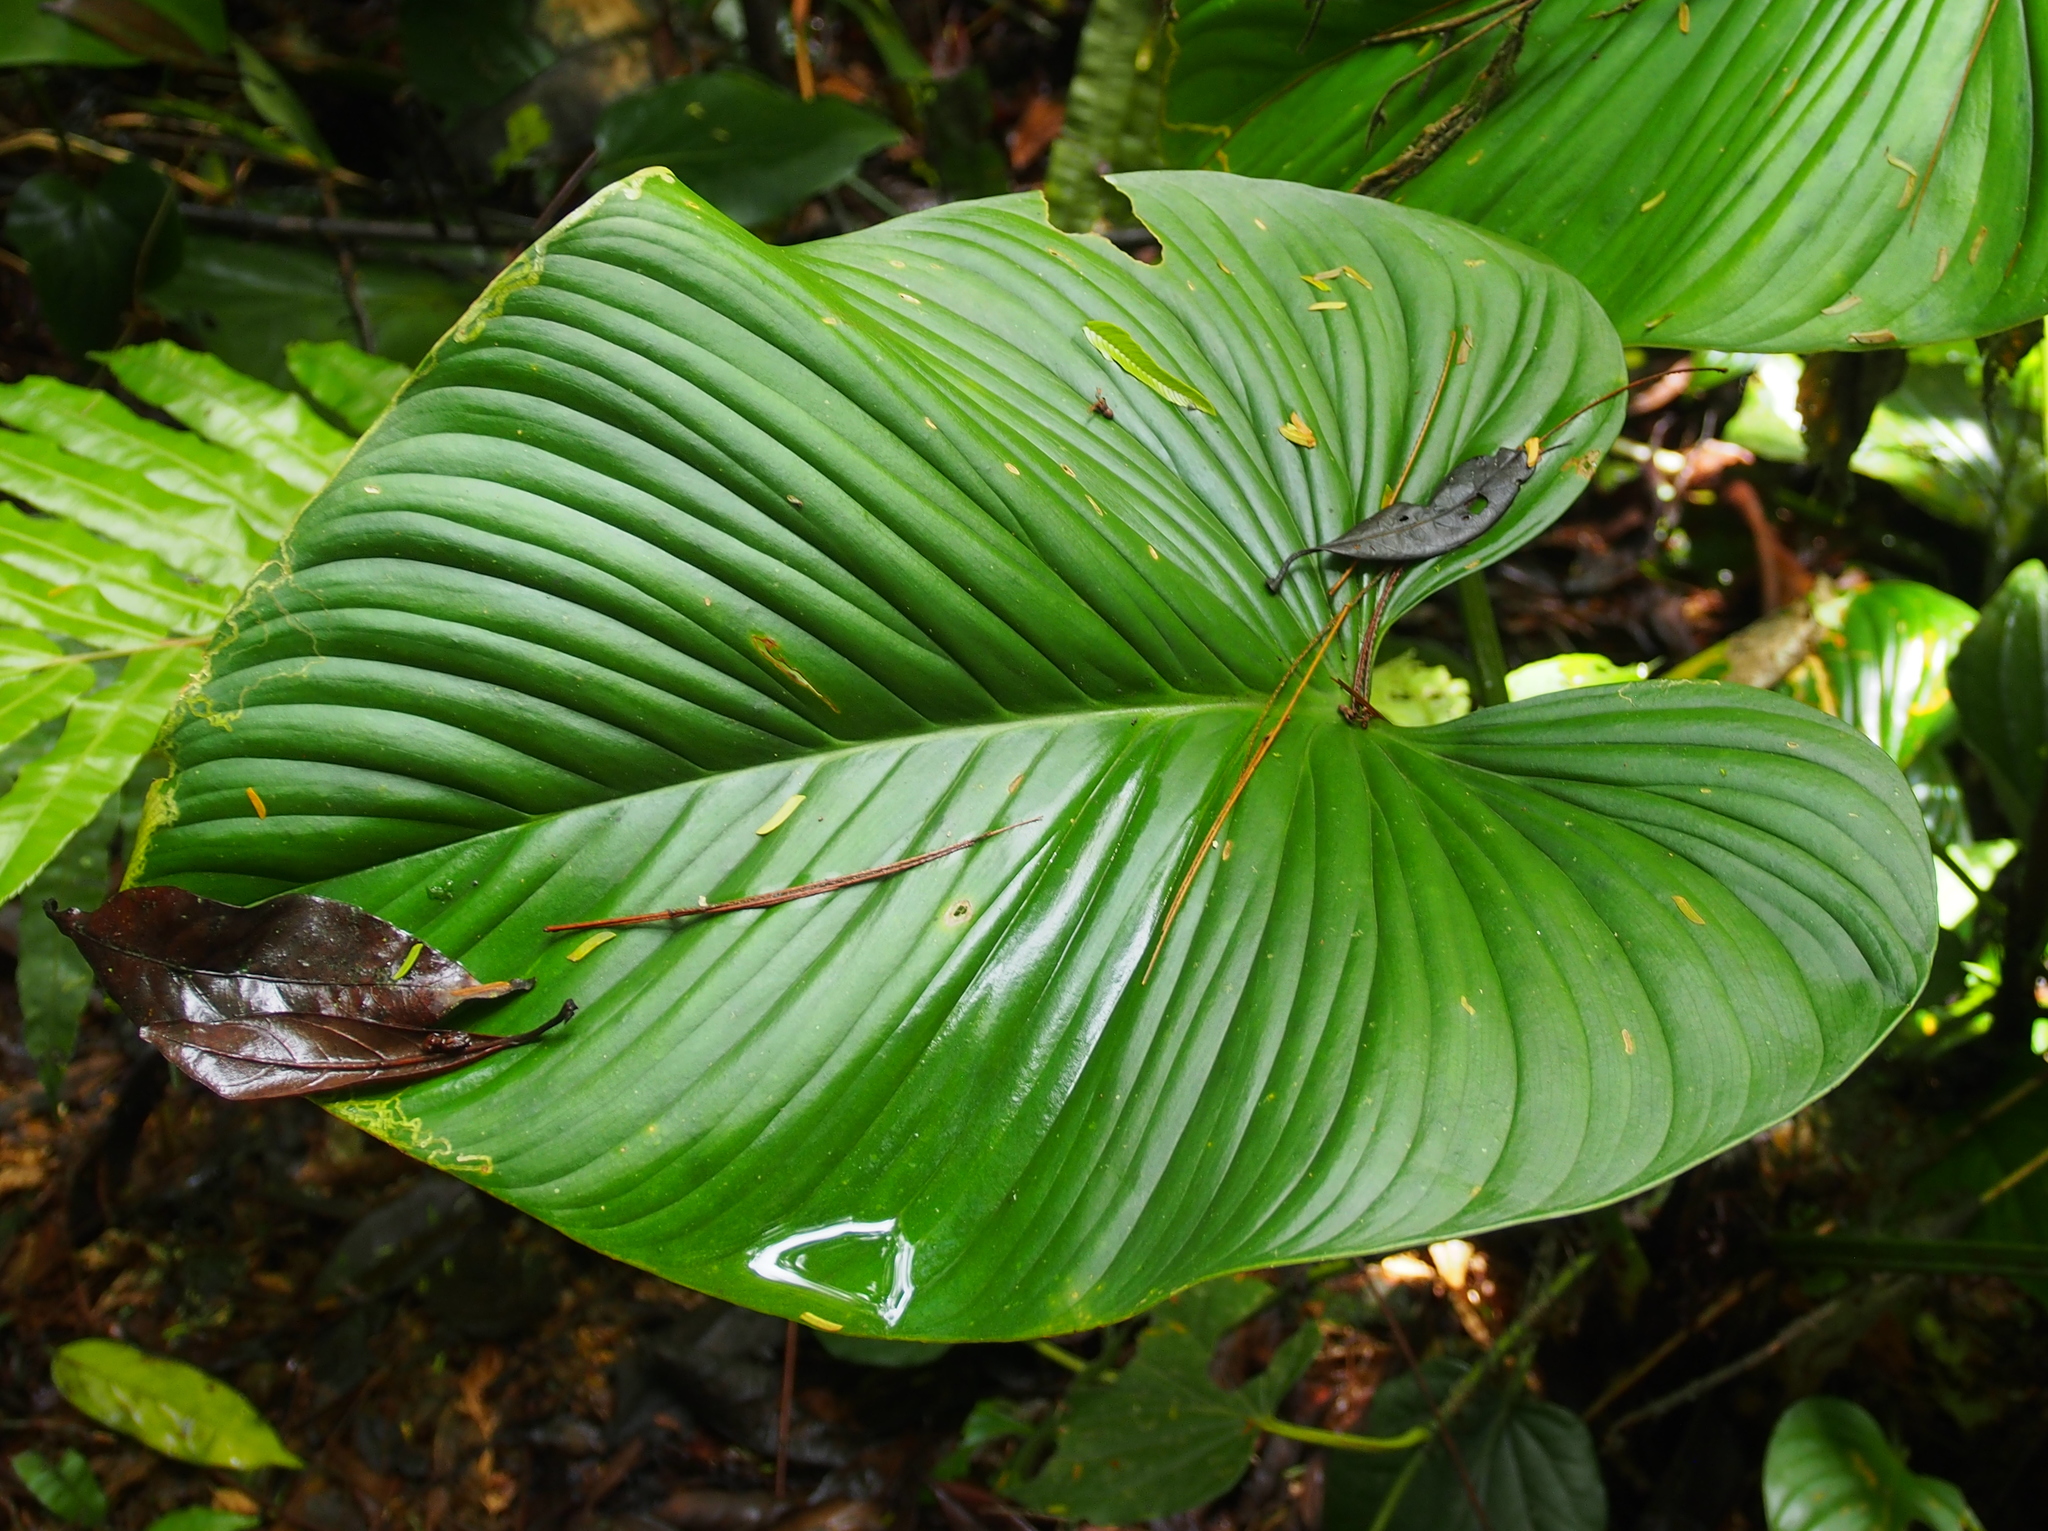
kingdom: Plantae
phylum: Tracheophyta
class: Liliopsida
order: Alismatales
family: Araceae
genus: Philodendron
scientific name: Philodendron grandipes
